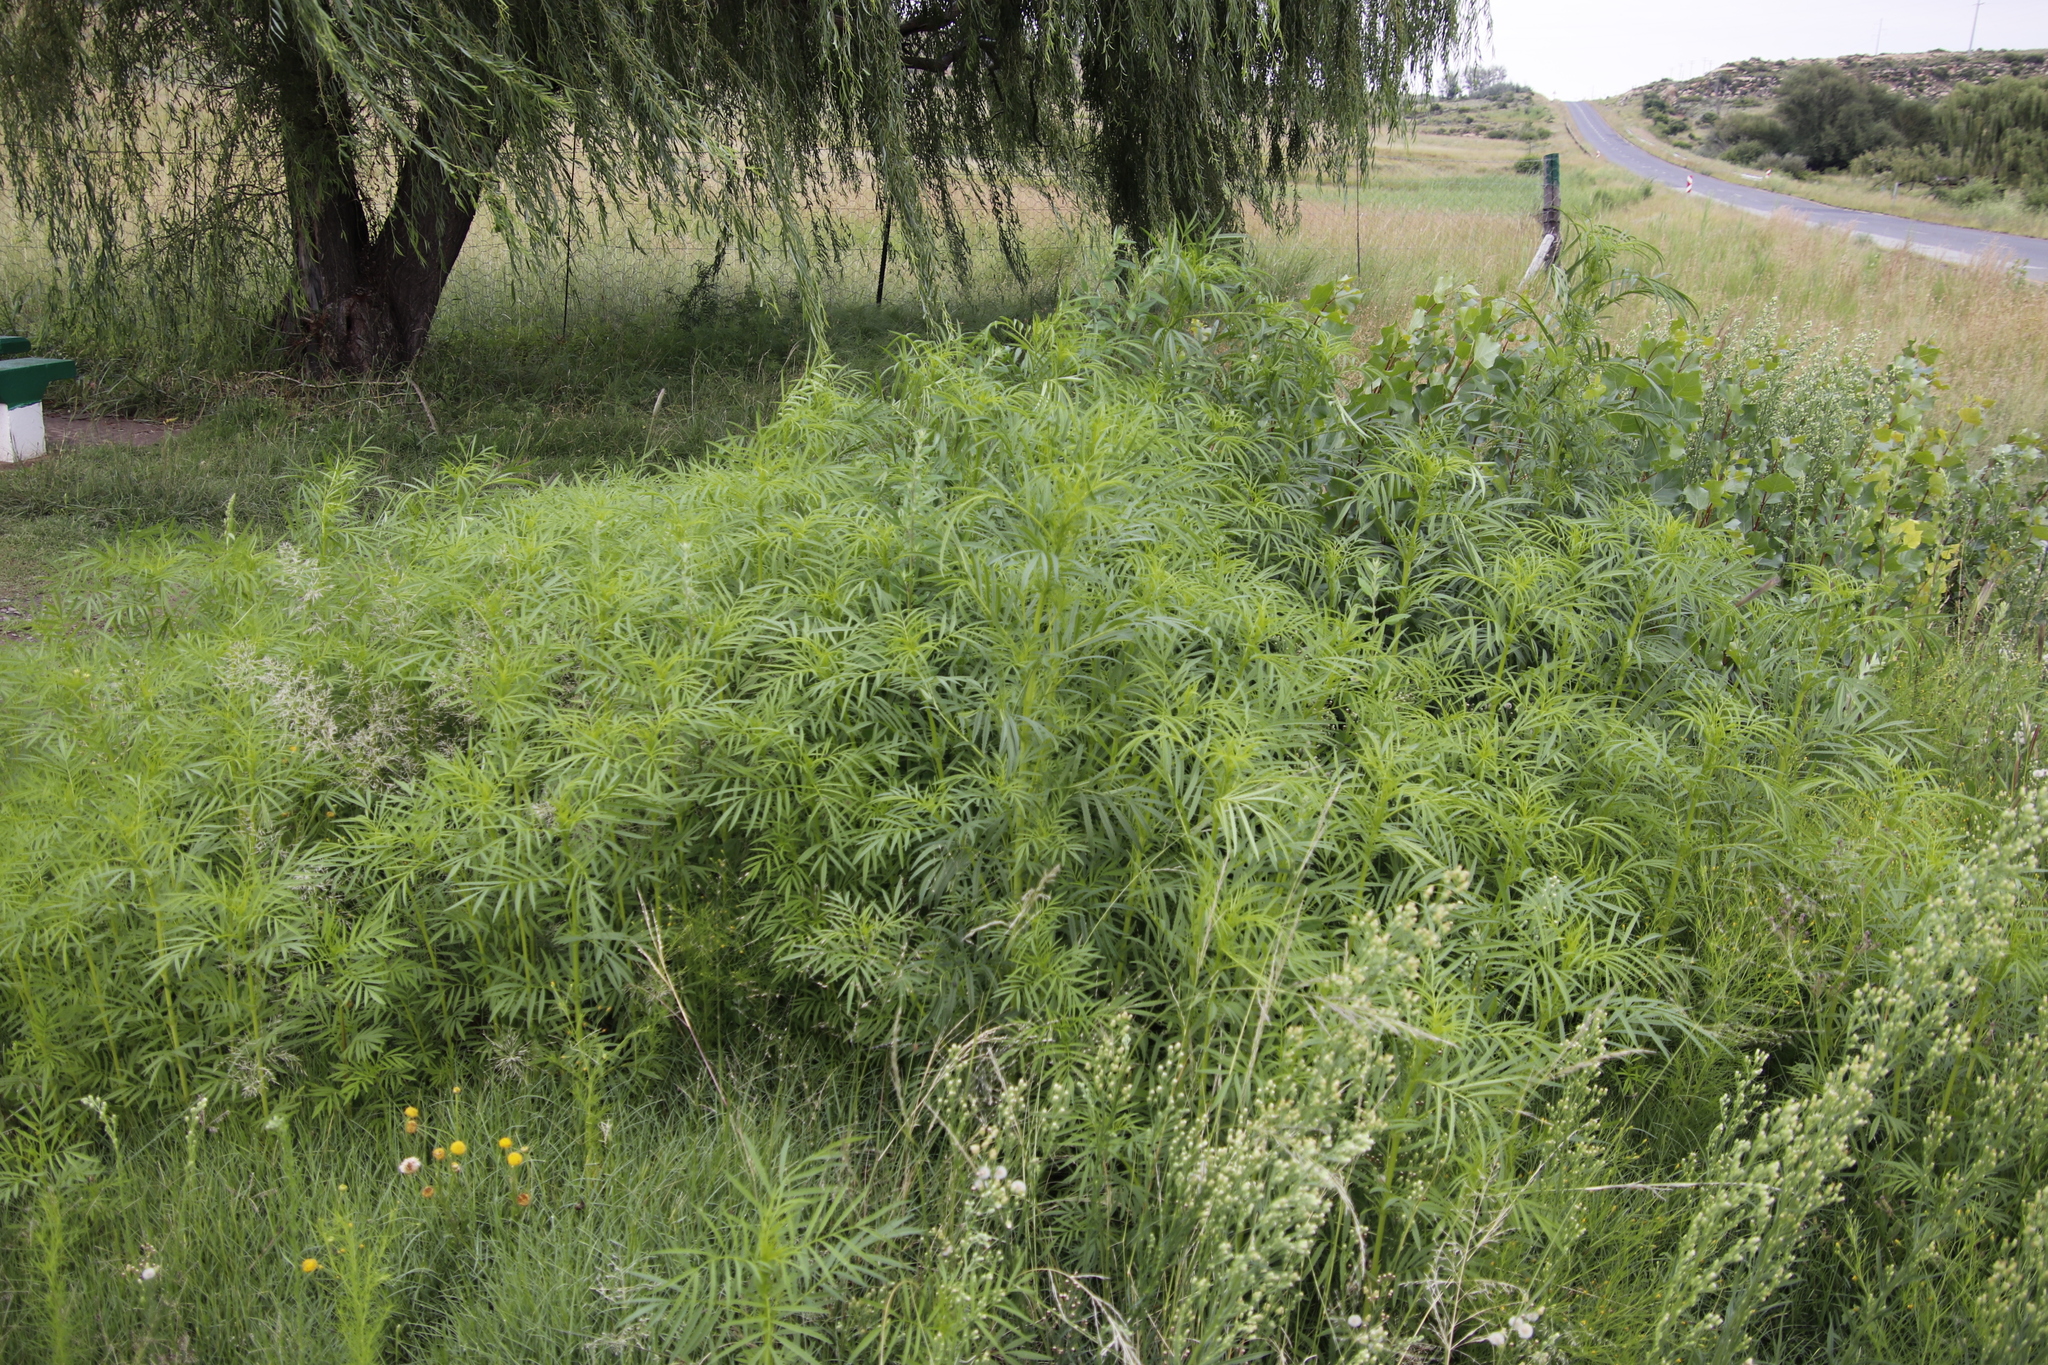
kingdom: Plantae
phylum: Tracheophyta
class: Magnoliopsida
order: Asterales
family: Asteraceae
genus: Tagetes
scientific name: Tagetes minuta
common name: Muster john henry
